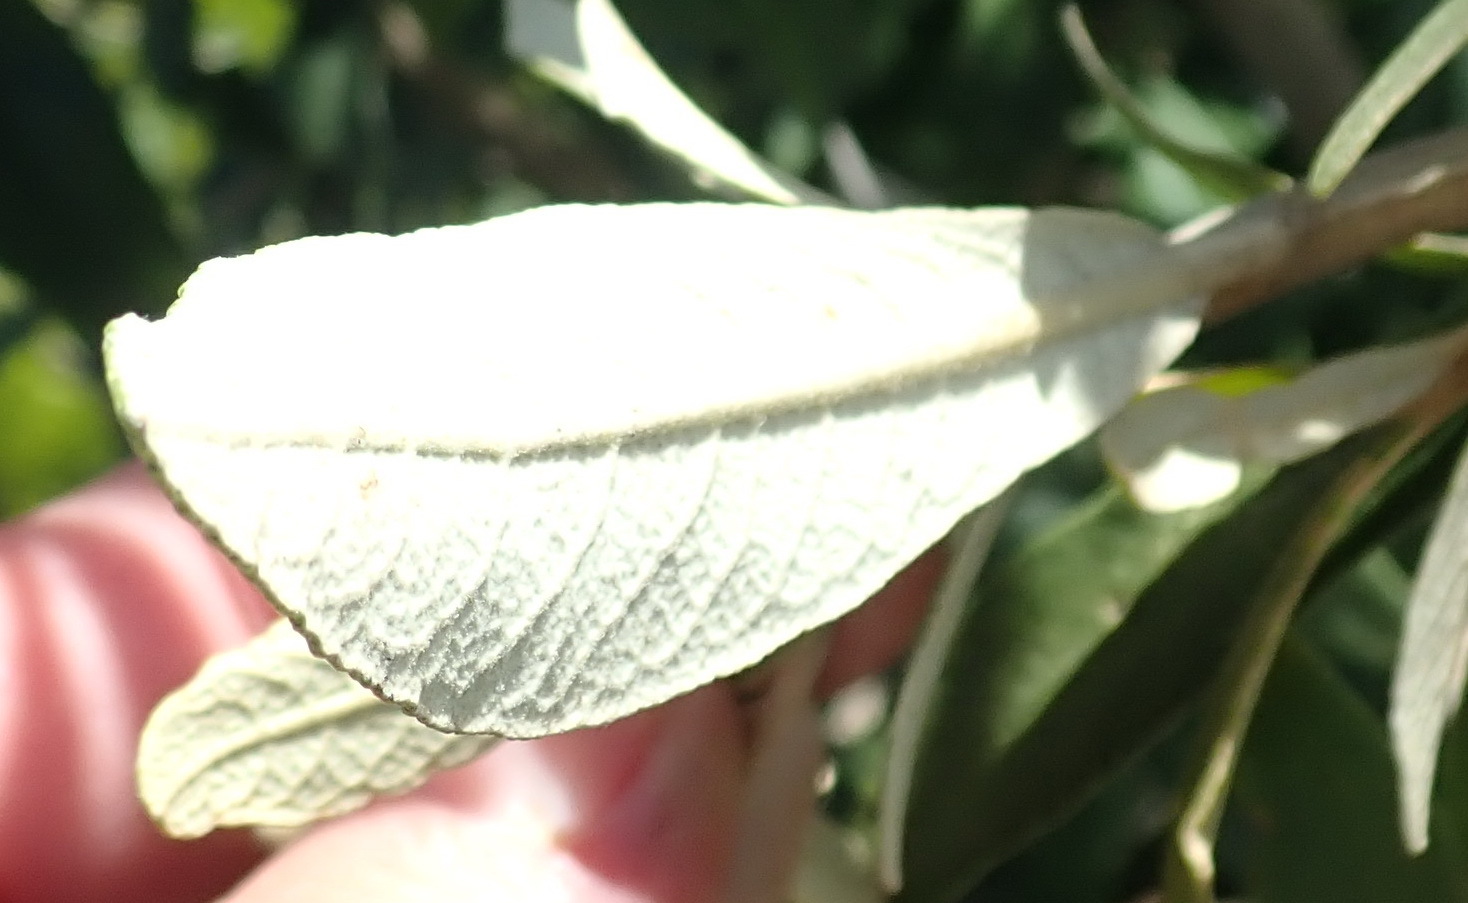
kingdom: Plantae
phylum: Tracheophyta
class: Magnoliopsida
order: Asterales
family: Asteraceae
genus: Tarchonanthus
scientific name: Tarchonanthus littoralis
